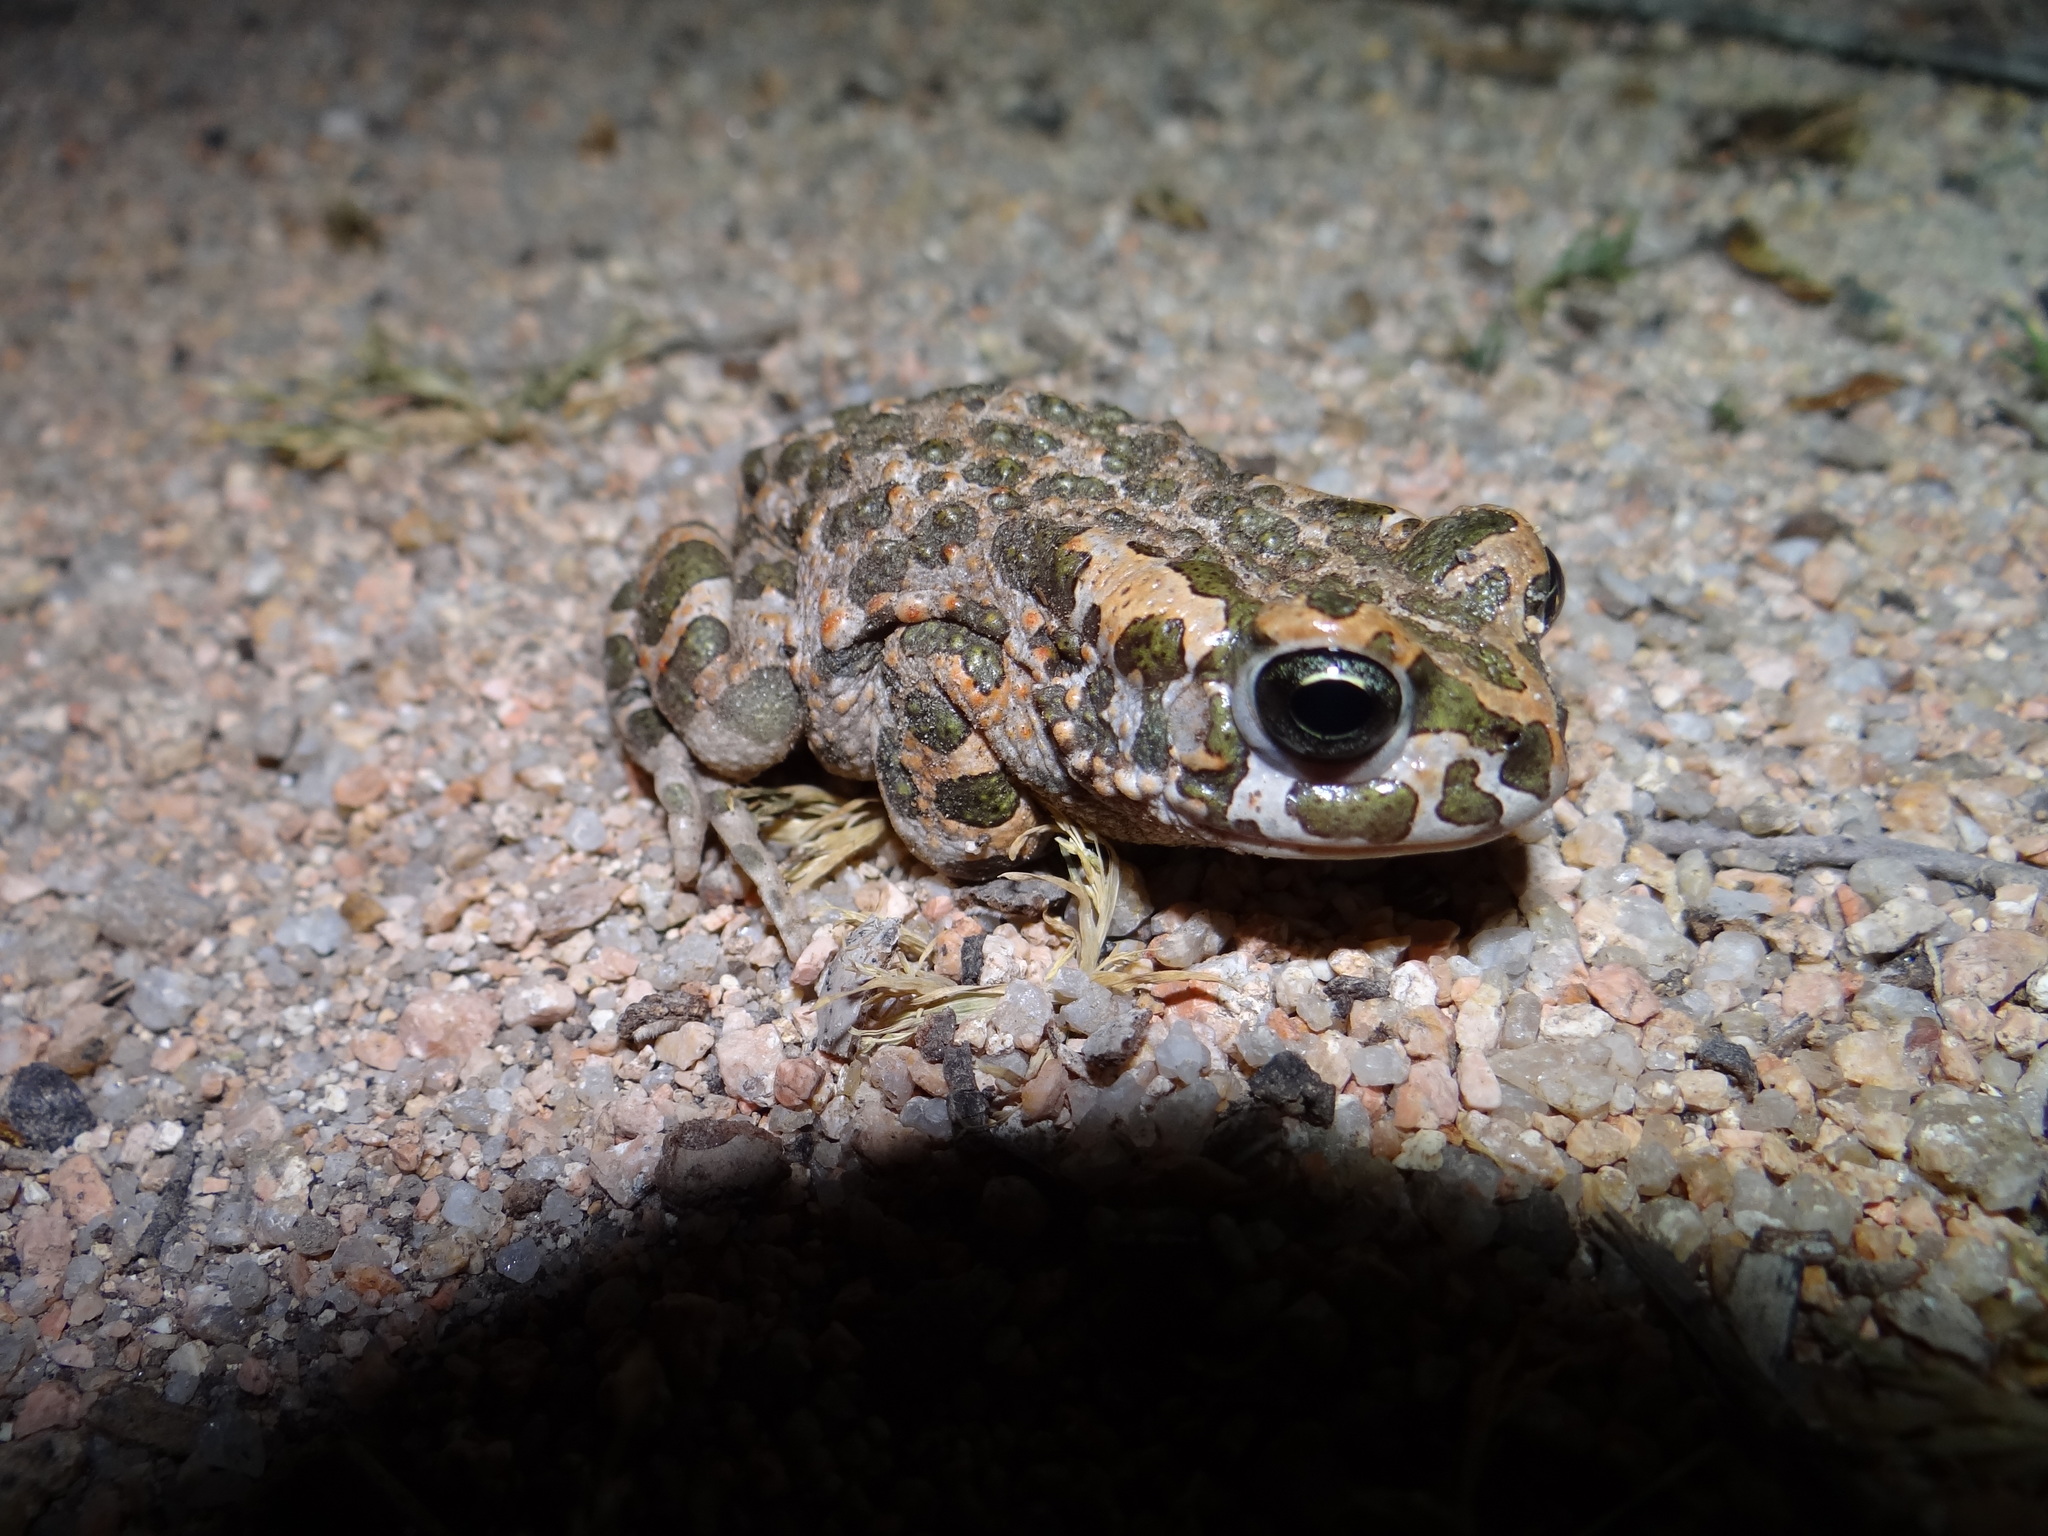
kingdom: Animalia
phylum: Chordata
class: Amphibia
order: Anura
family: Bufonidae
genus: Bufotes
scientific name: Bufotes viridis
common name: European green toad
